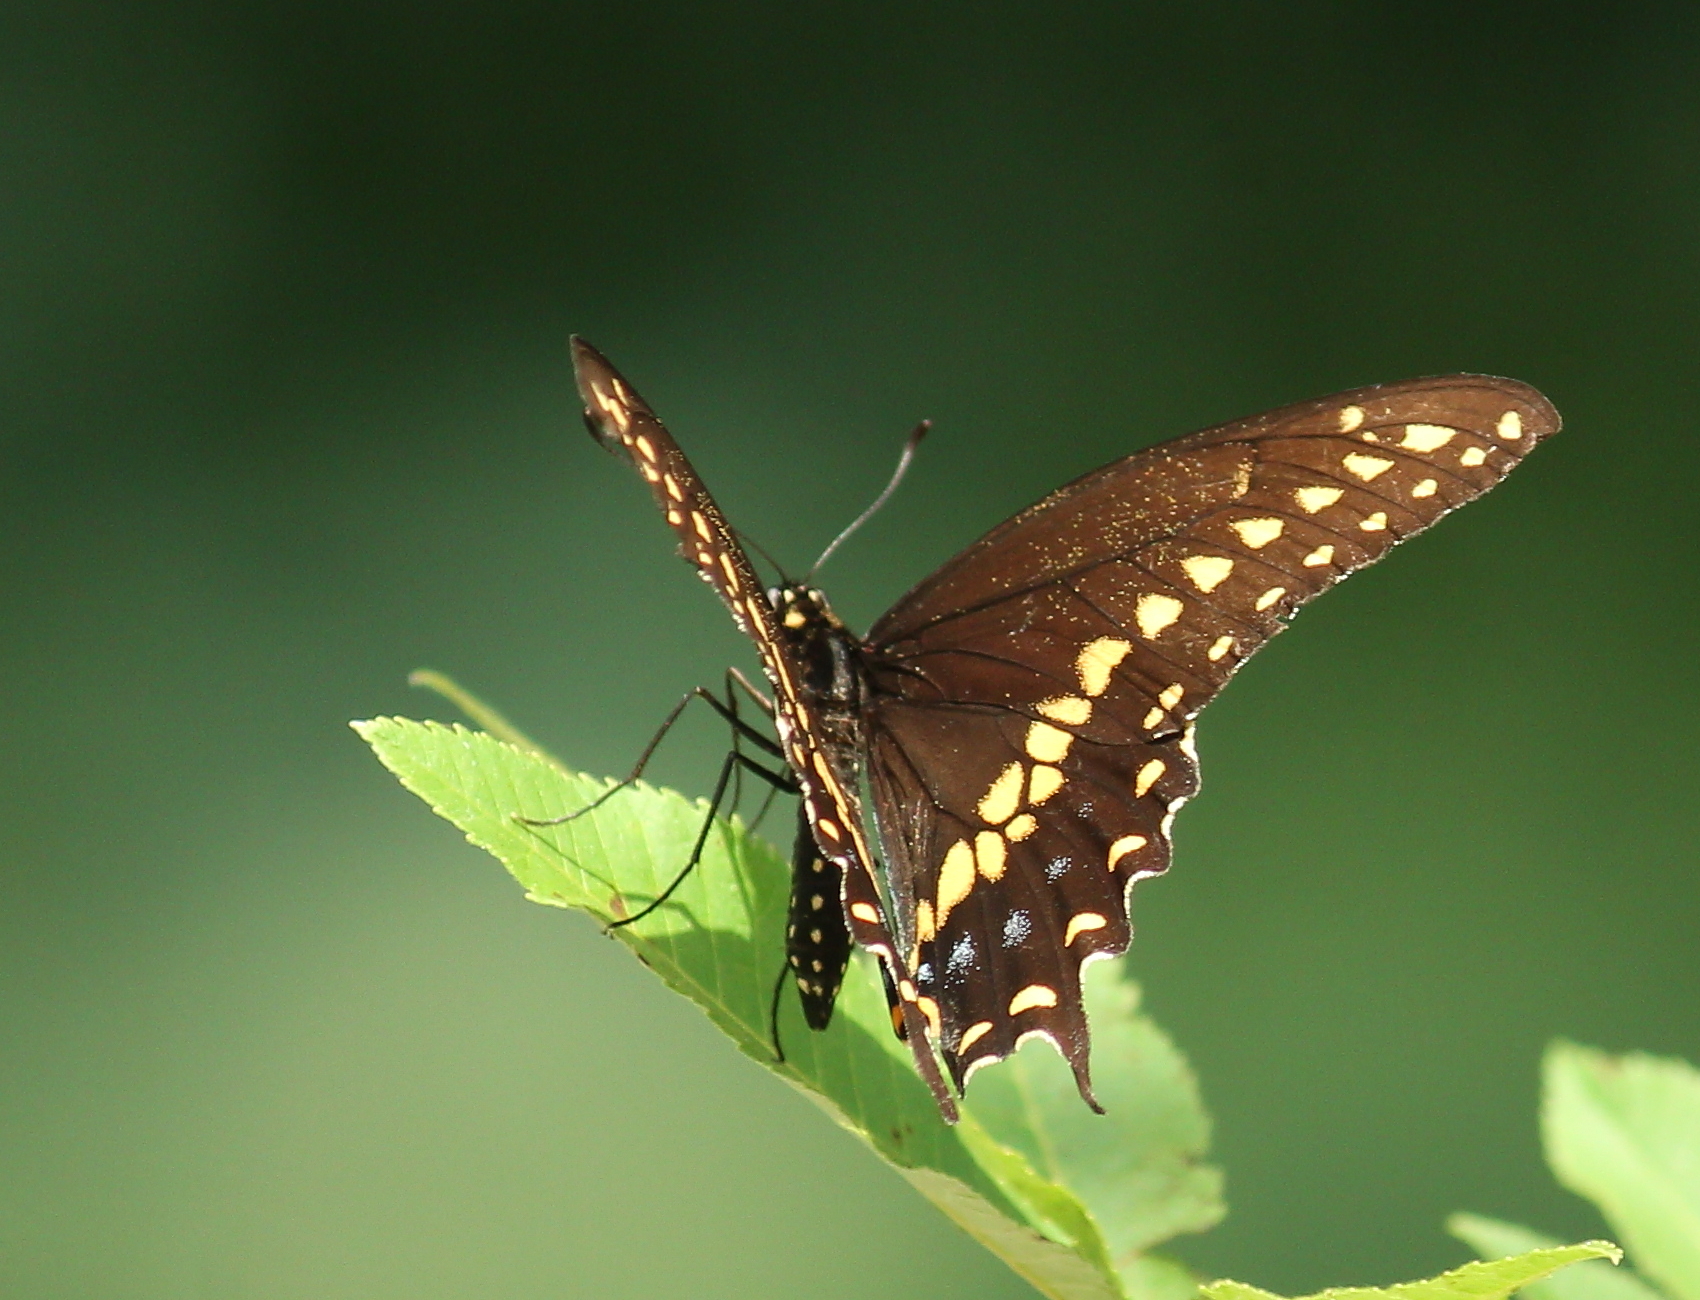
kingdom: Animalia
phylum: Arthropoda
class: Insecta
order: Lepidoptera
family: Papilionidae
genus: Papilio
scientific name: Papilio polyxenes
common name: Black swallowtail
